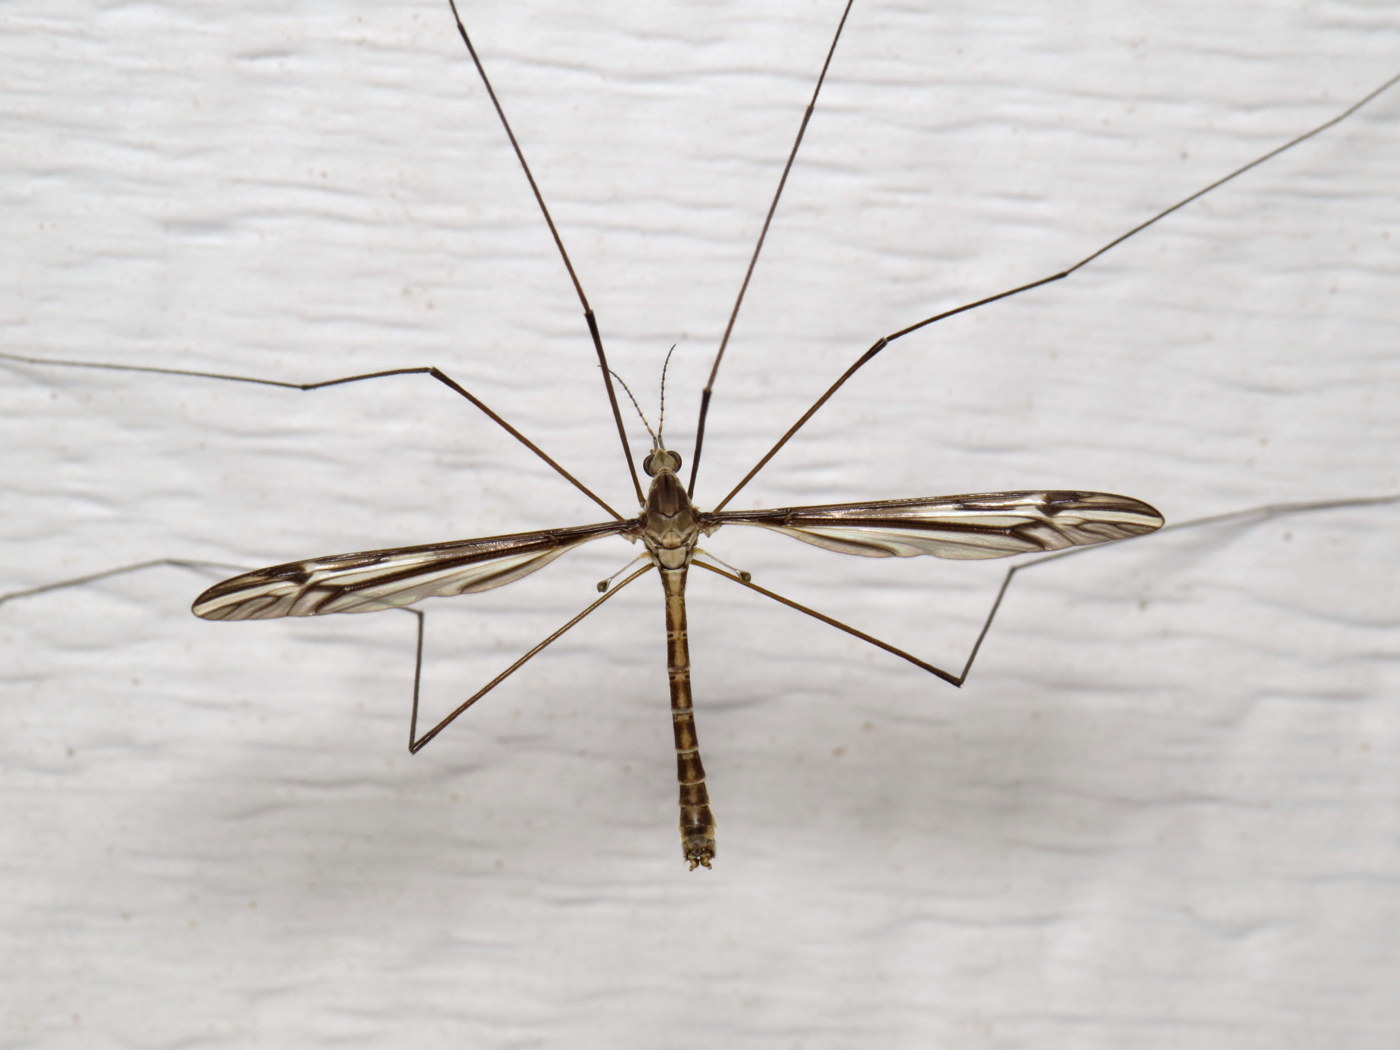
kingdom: Animalia
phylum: Arthropoda
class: Insecta
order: Diptera
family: Tipulidae
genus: Tipula
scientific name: Tipula furca
